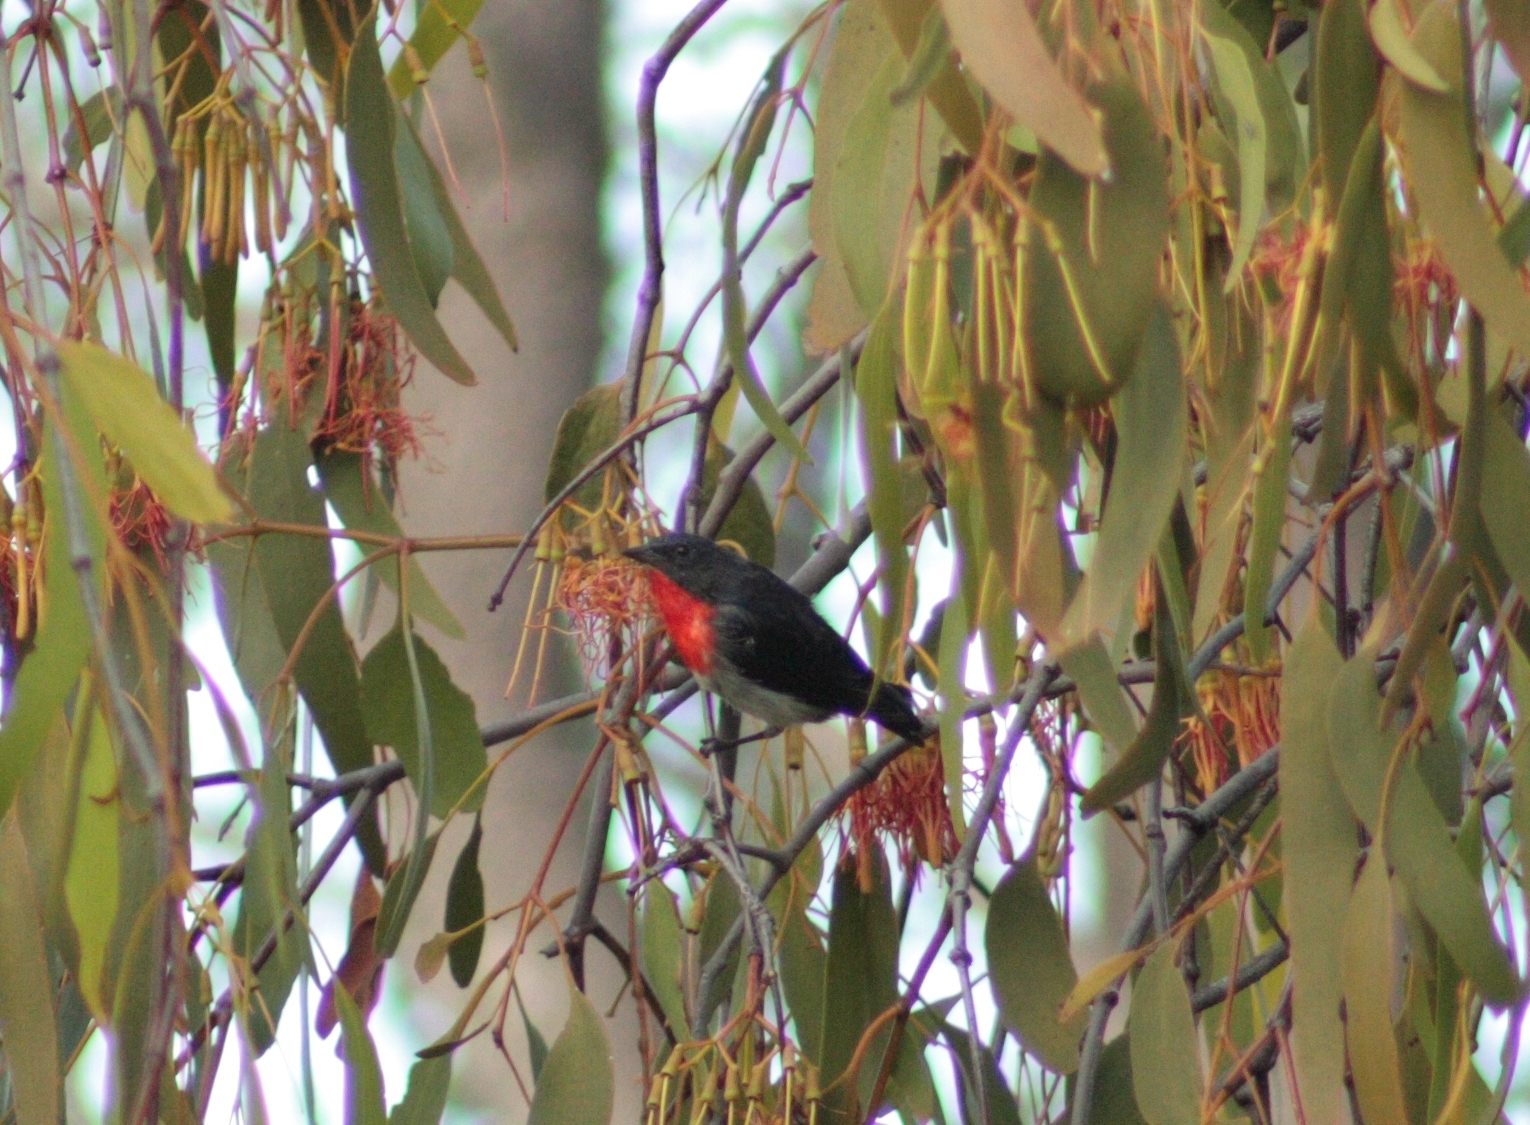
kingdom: Animalia
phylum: Chordata
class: Aves
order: Passeriformes
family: Dicaeidae
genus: Dicaeum
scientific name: Dicaeum hirundinaceum
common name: Mistletoebird
